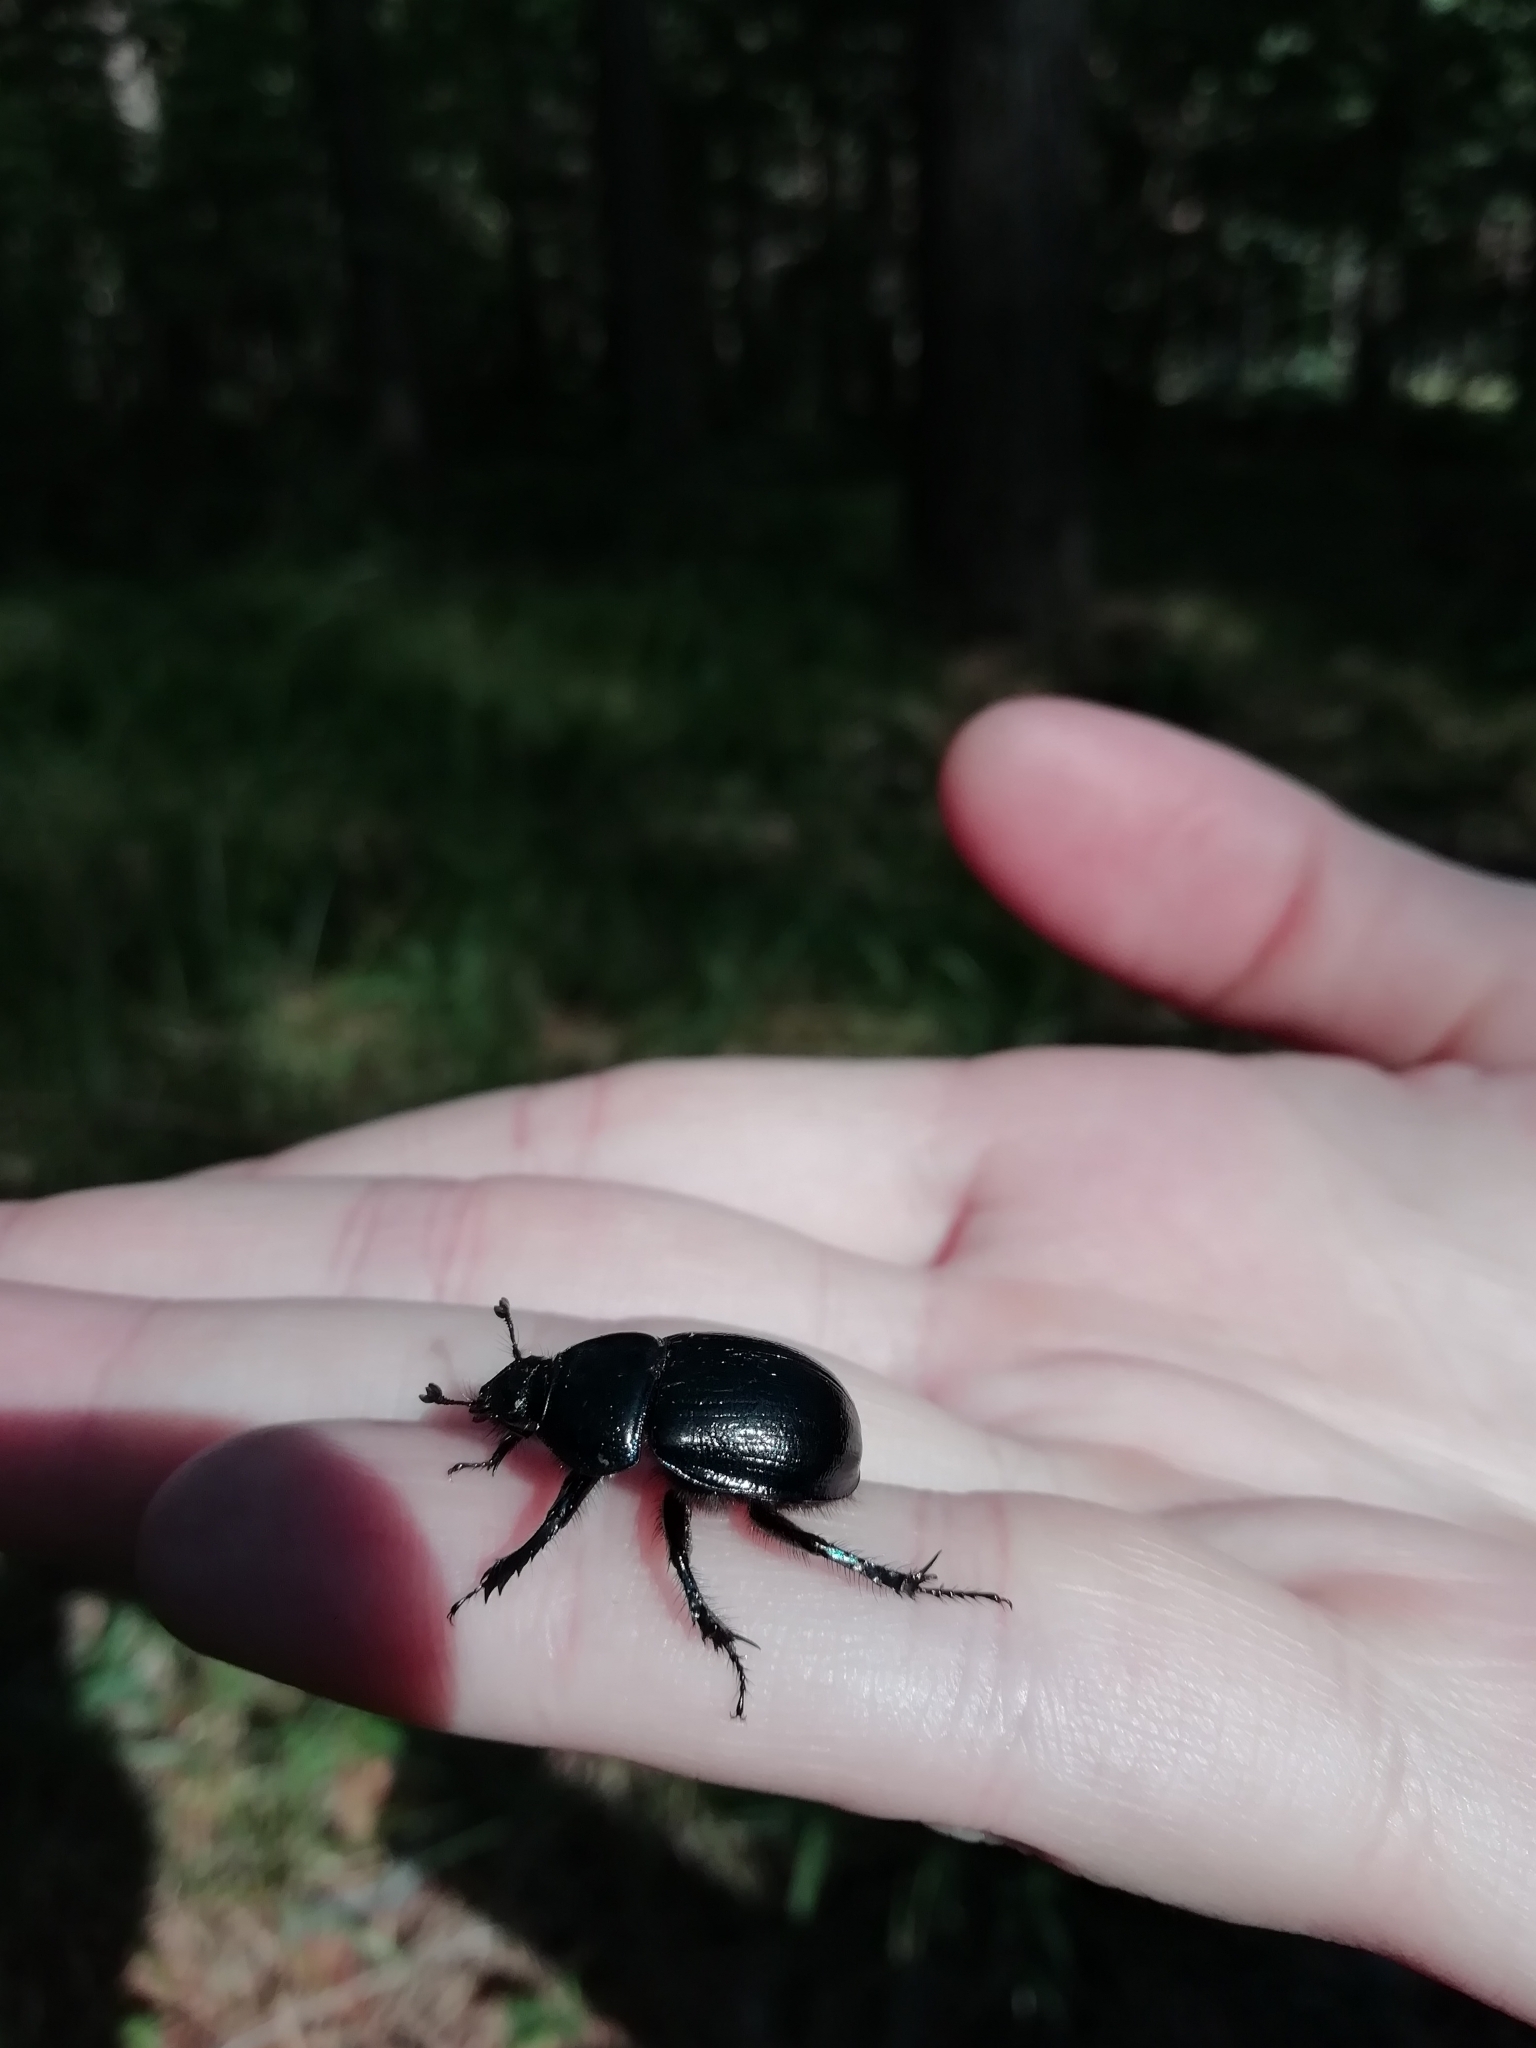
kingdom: Animalia
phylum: Arthropoda
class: Insecta
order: Coleoptera
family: Geotrupidae
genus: Anoplotrupes
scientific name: Anoplotrupes stercorosus
